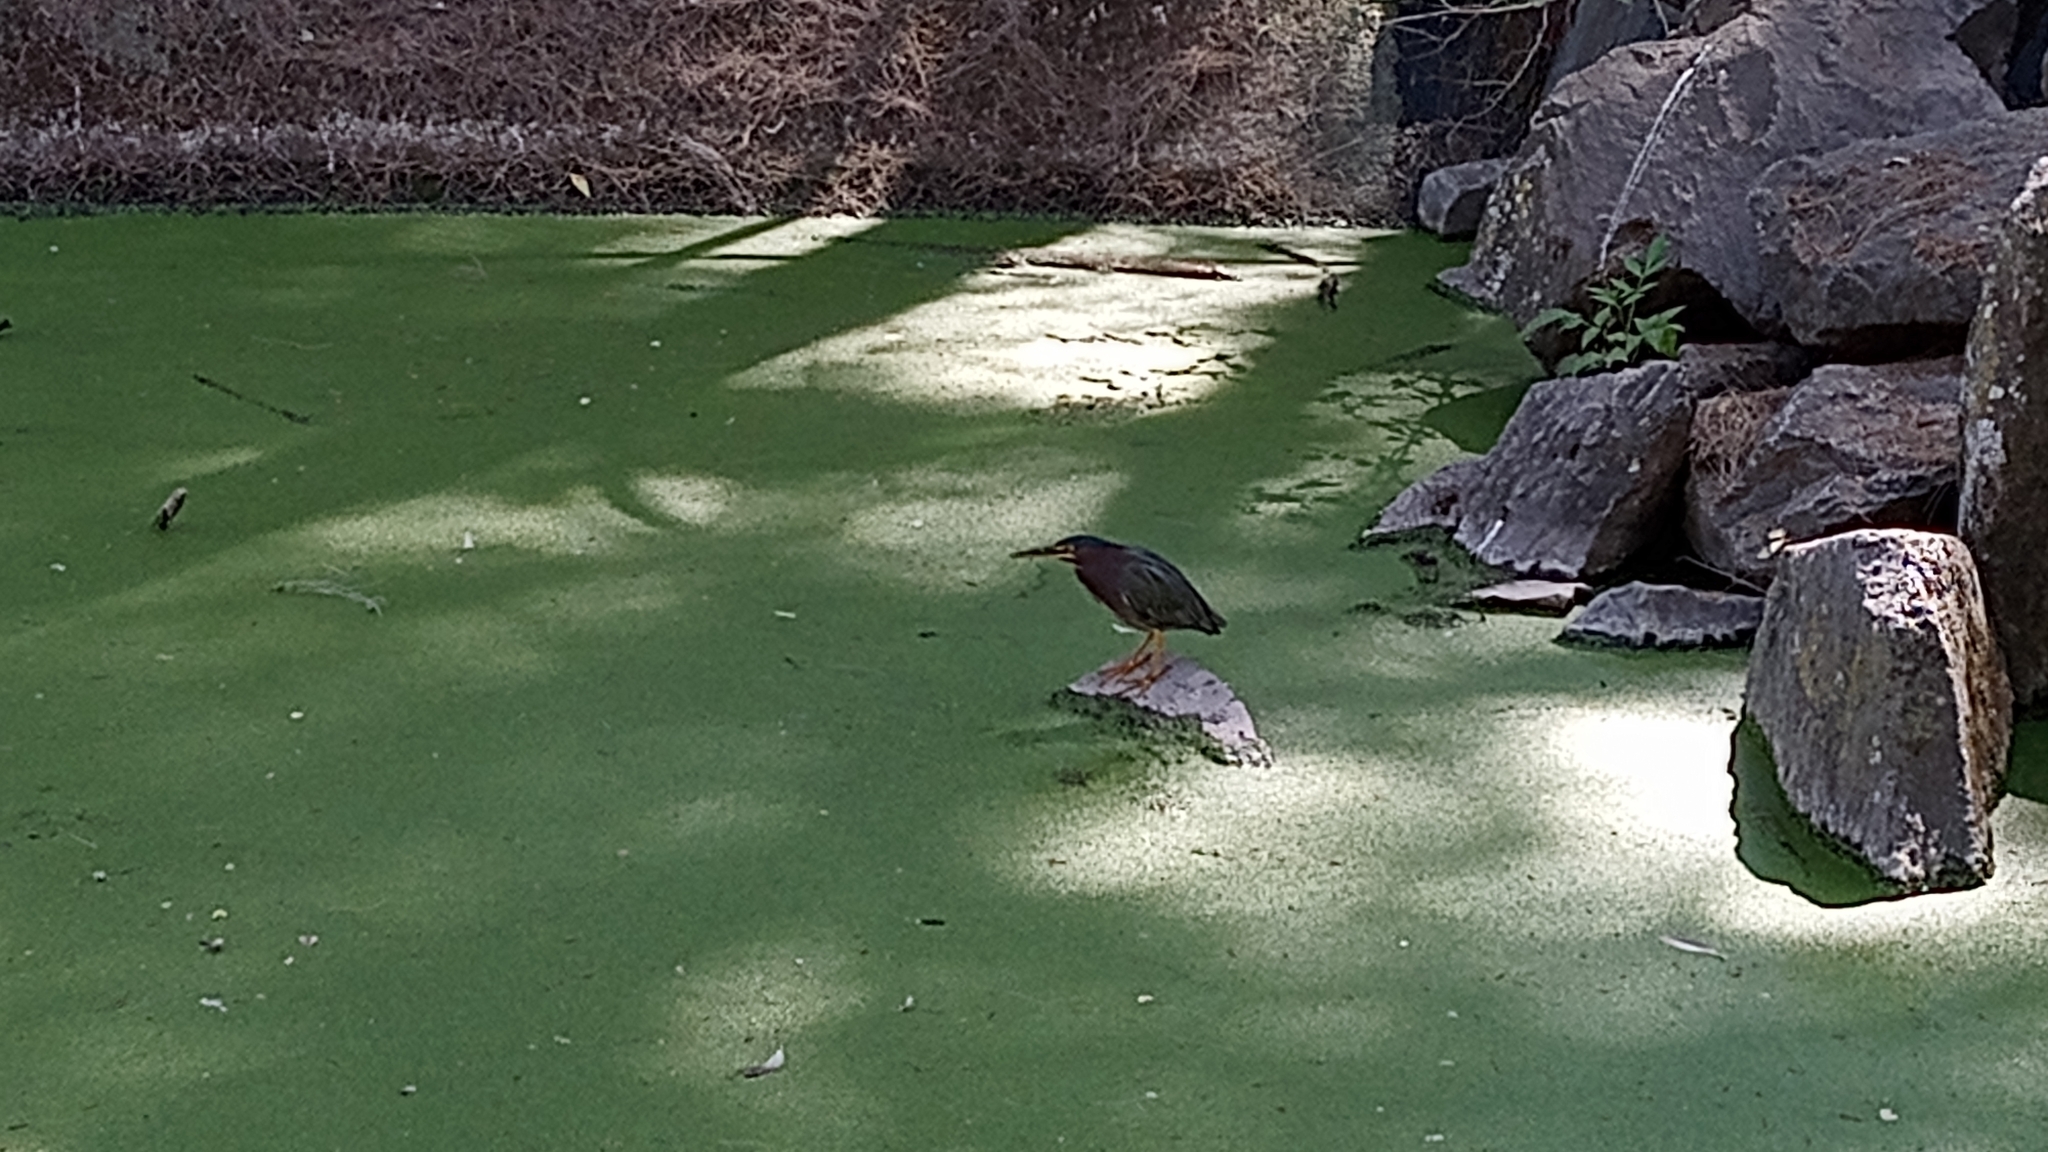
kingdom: Animalia
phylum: Chordata
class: Aves
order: Pelecaniformes
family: Ardeidae
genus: Butorides
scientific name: Butorides virescens
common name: Green heron
